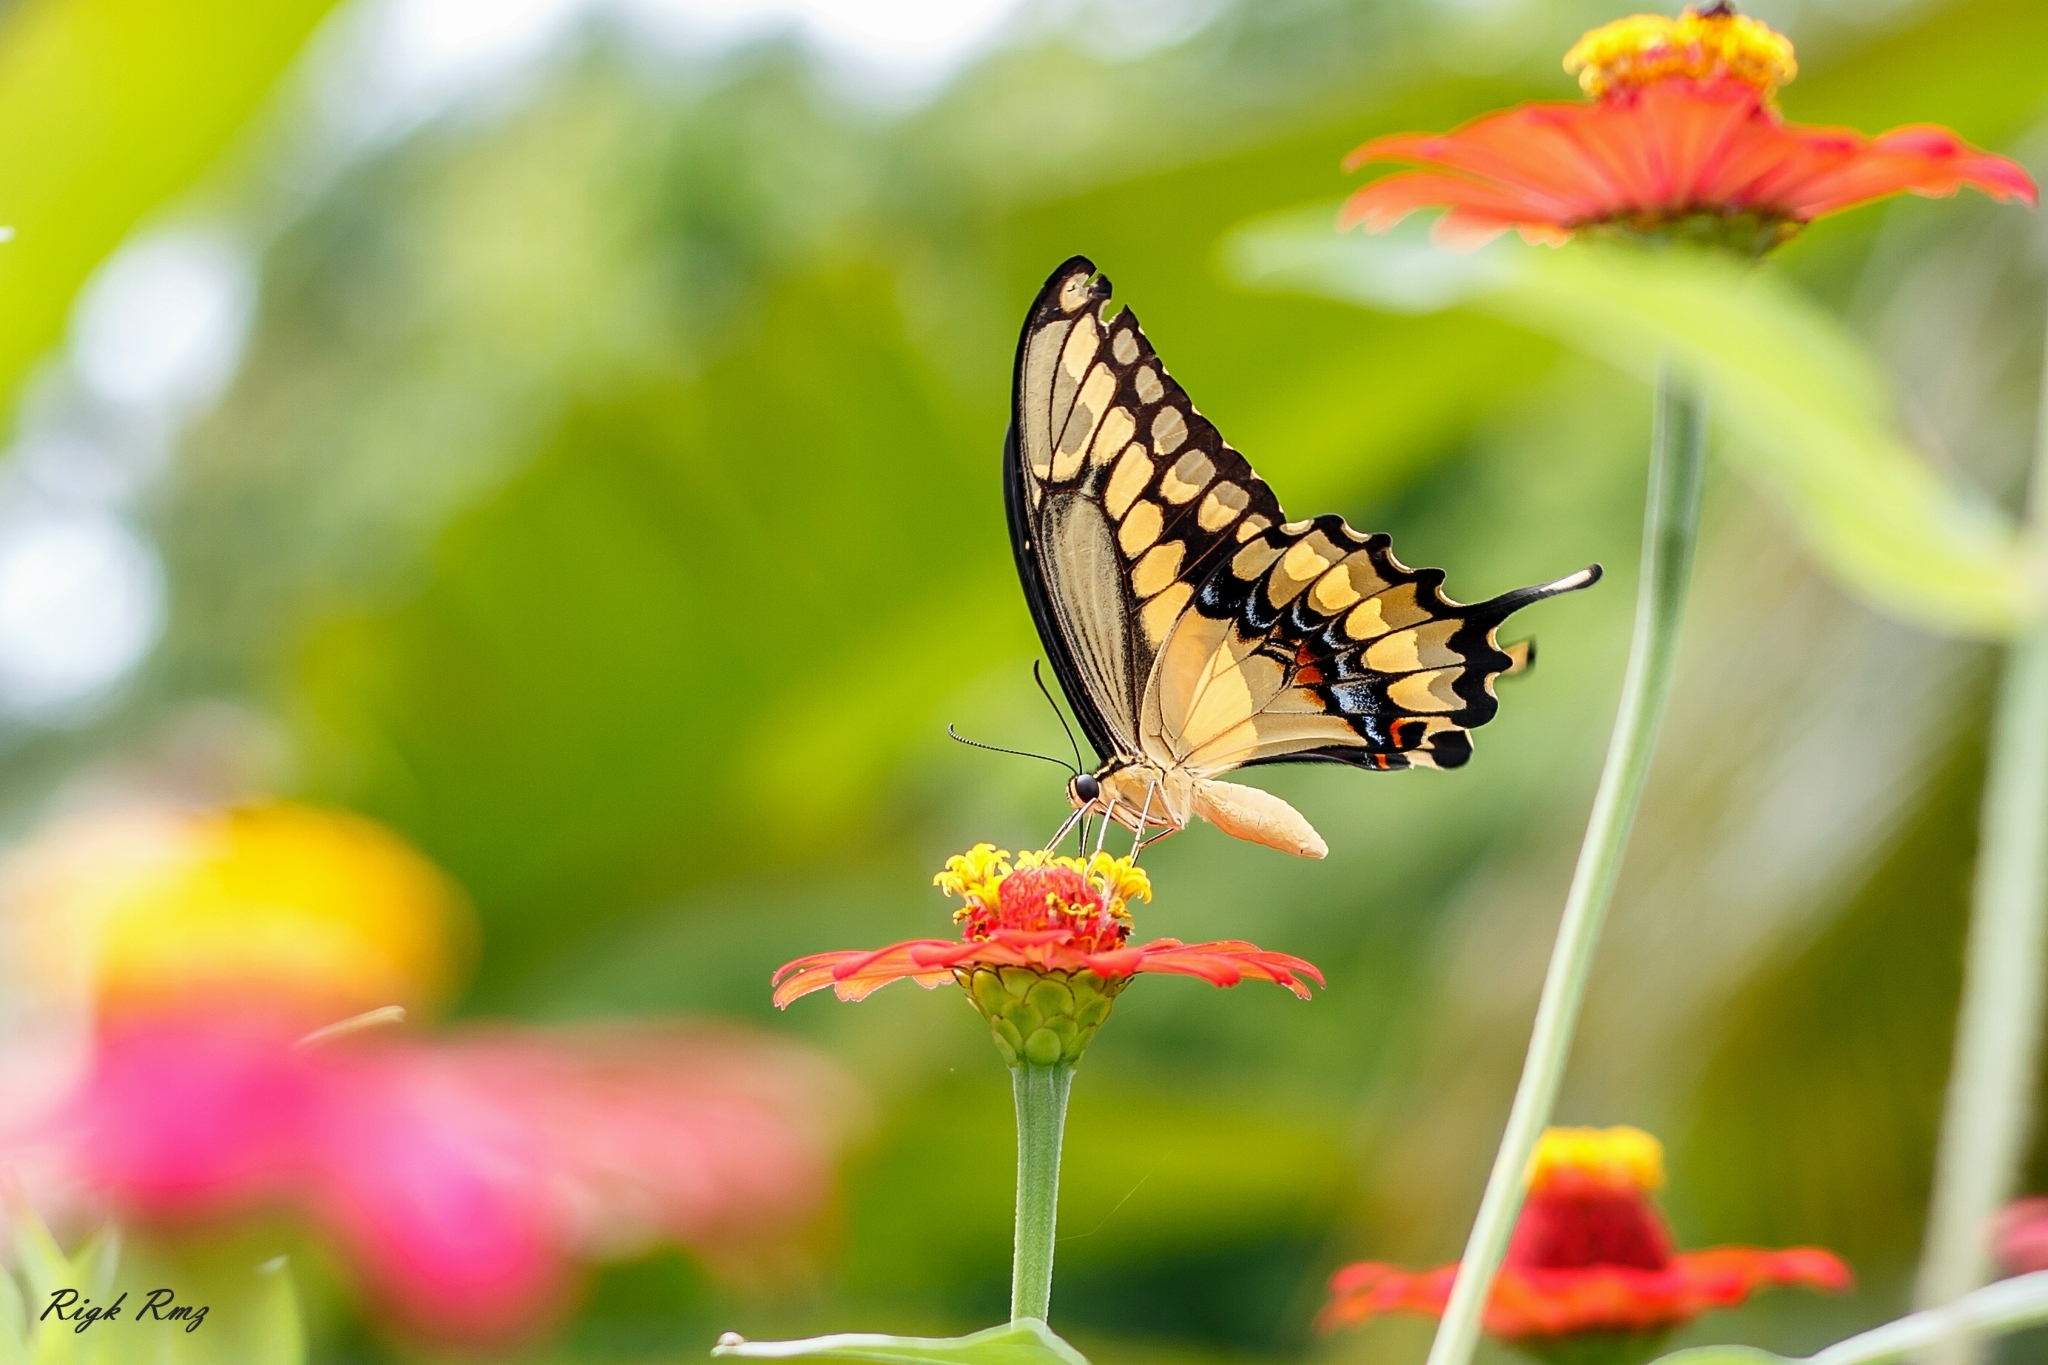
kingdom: Animalia
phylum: Arthropoda
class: Insecta
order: Lepidoptera
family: Papilionidae
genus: Papilio
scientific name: Papilio rumiko
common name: Western giant swallowtail
